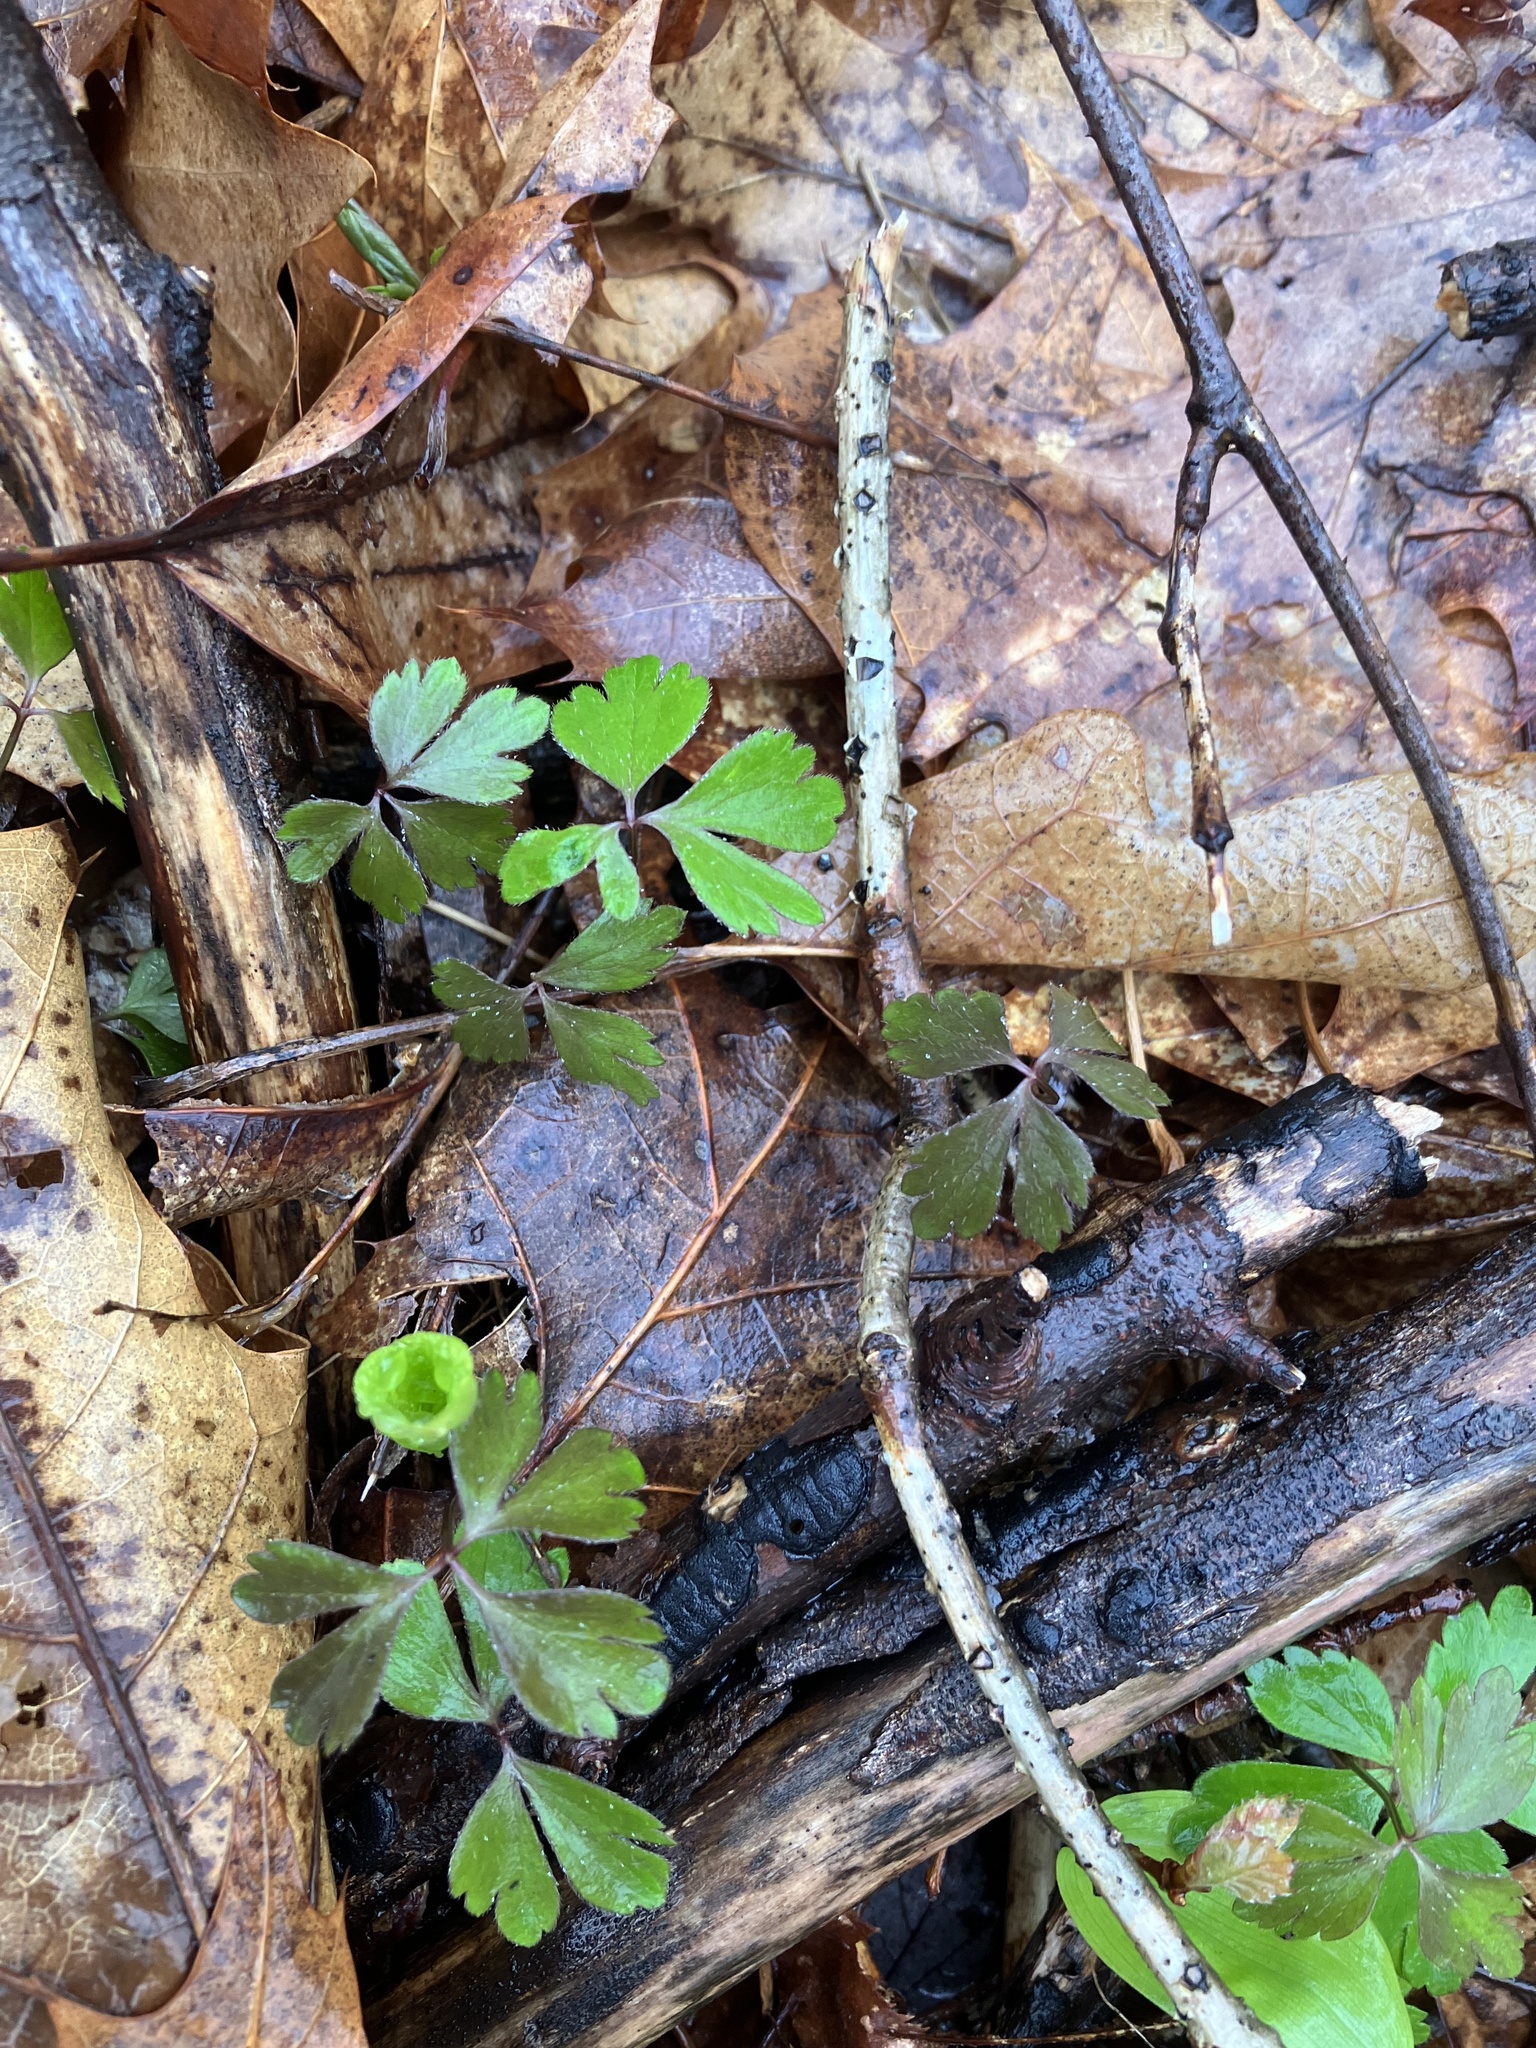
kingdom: Plantae
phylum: Tracheophyta
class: Magnoliopsida
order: Ranunculales
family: Ranunculaceae
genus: Anemone
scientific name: Anemone quinquefolia
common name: Wood anemone
